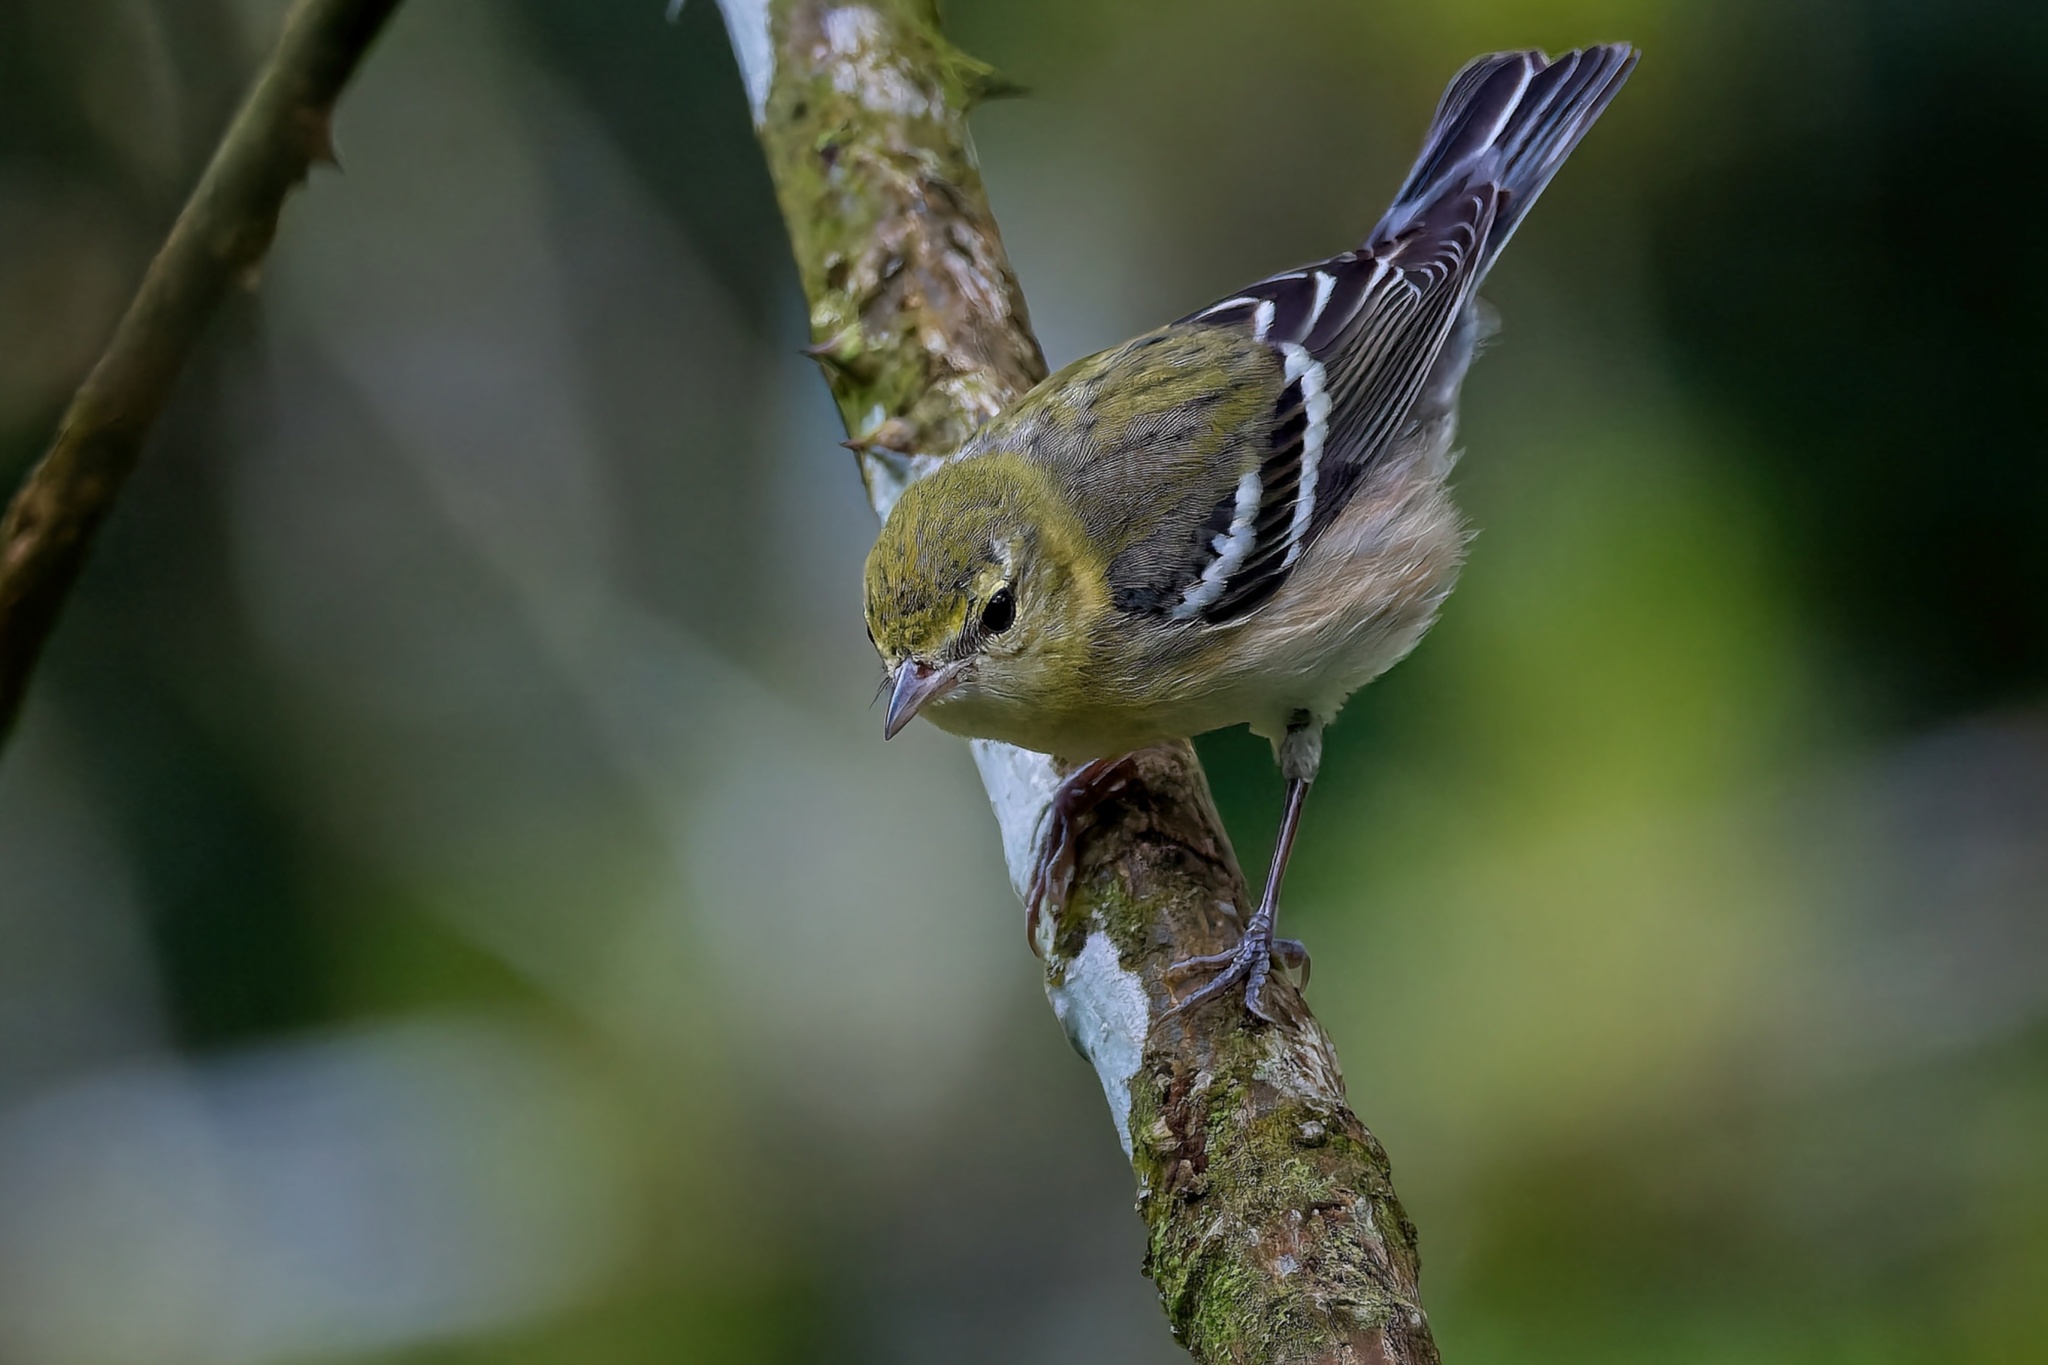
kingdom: Animalia
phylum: Chordata
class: Aves
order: Passeriformes
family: Parulidae
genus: Setophaga
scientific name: Setophaga castanea
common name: Bay-breasted warbler
